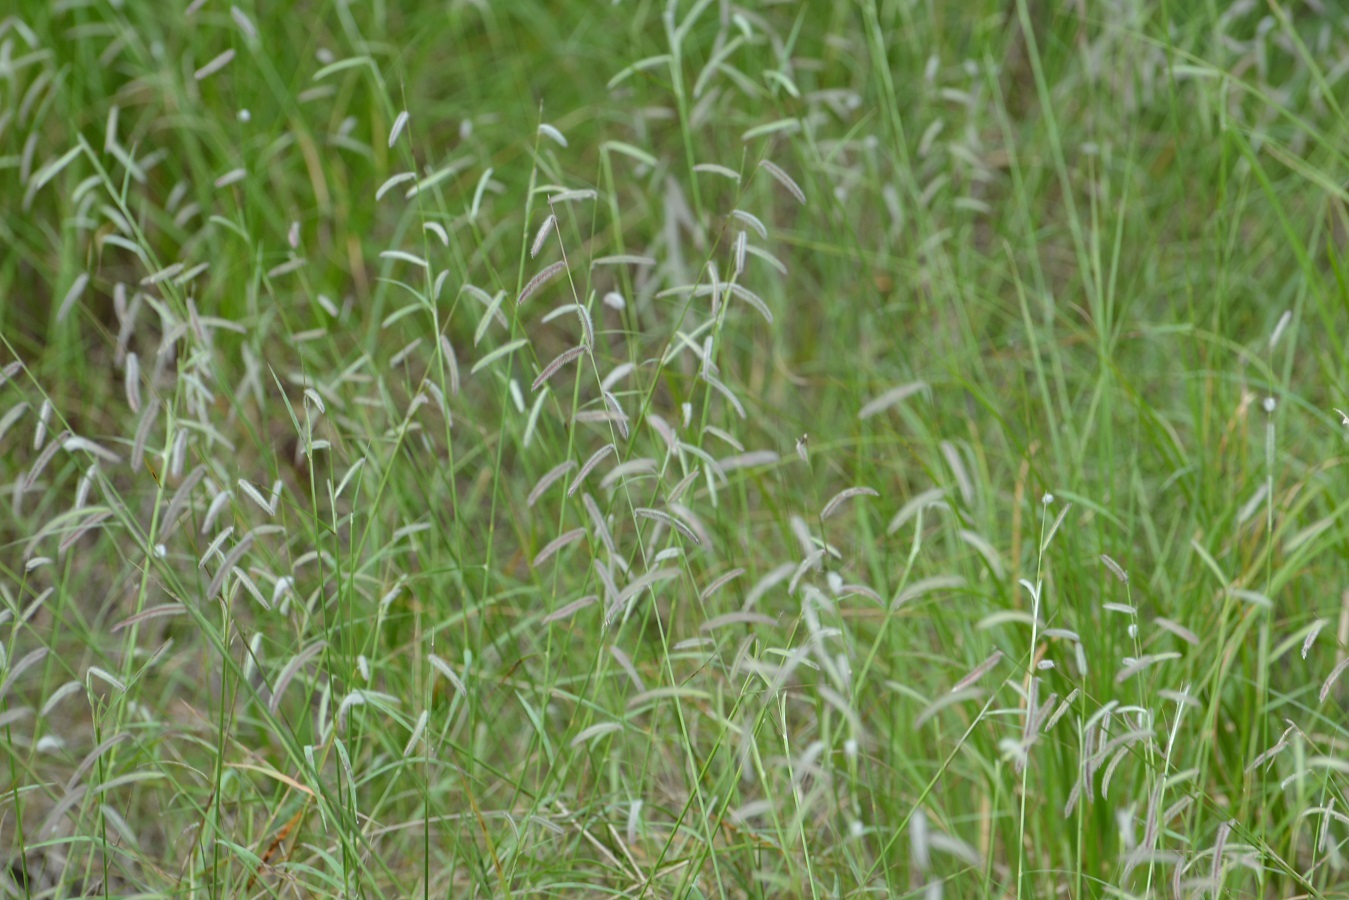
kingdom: Plantae
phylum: Tracheophyta
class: Liliopsida
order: Poales
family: Poaceae
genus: Bouteloua
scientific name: Bouteloua elata
